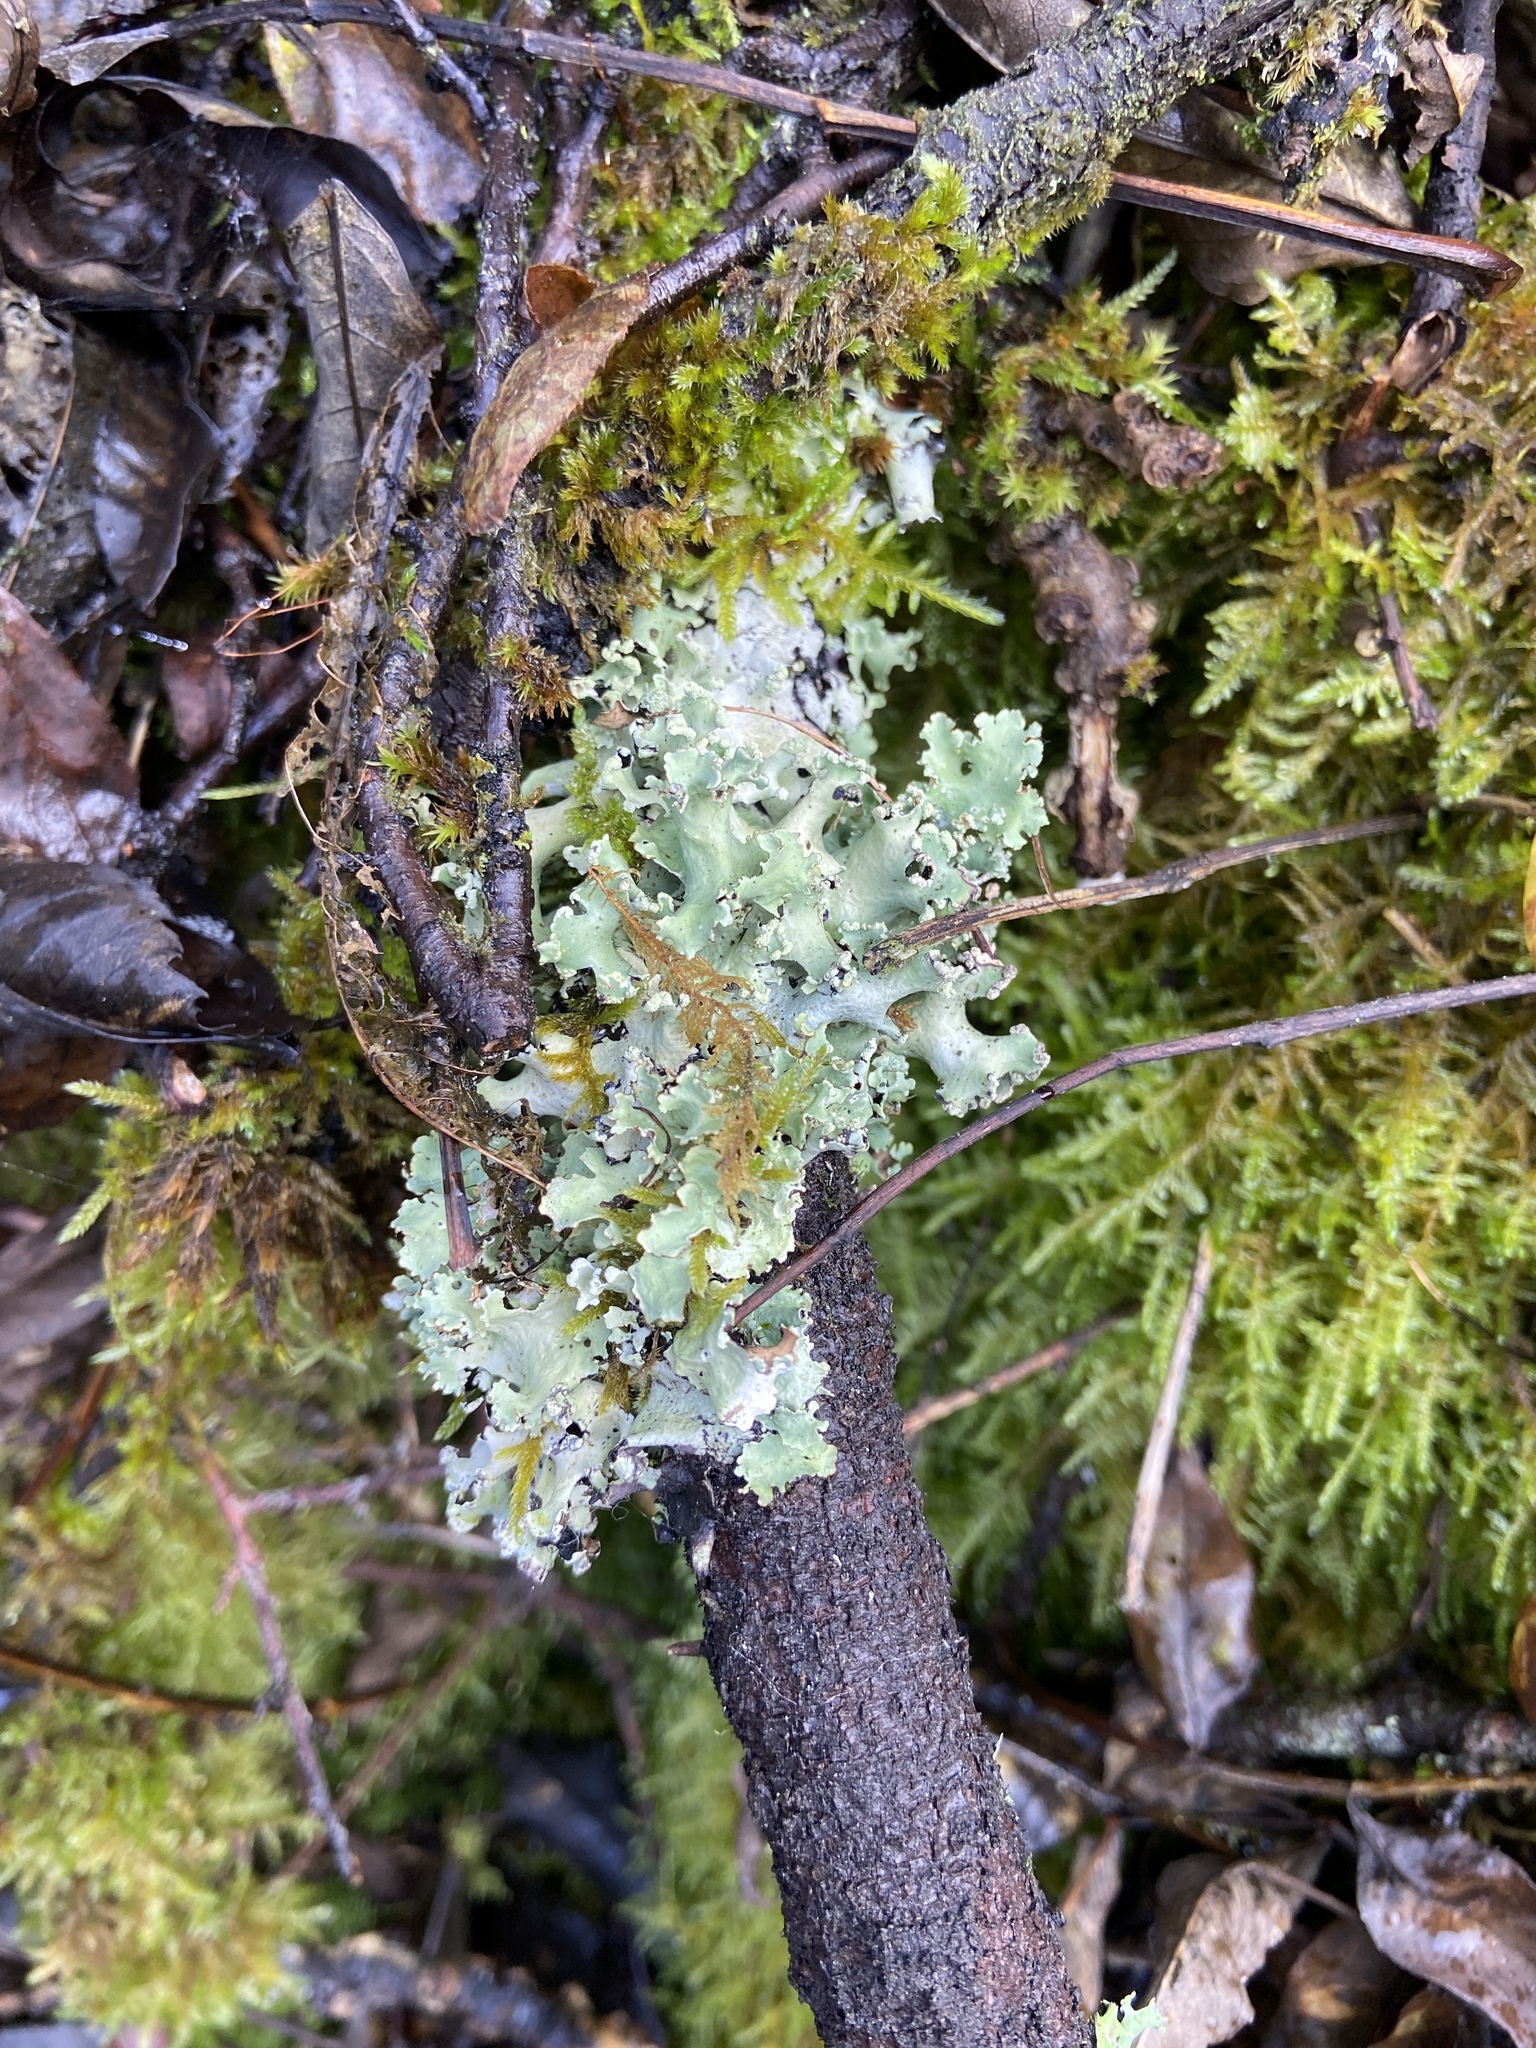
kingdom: Fungi
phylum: Ascomycota
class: Lecanoromycetes
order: Lecanorales
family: Parmeliaceae
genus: Punctelia
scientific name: Punctelia jeckeri
